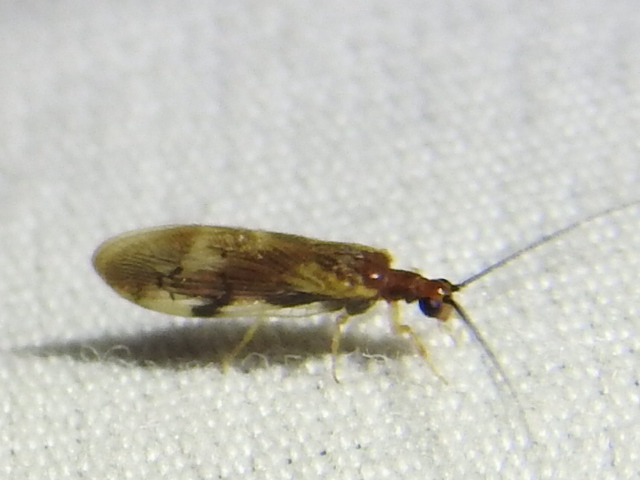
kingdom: Animalia
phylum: Arthropoda
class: Insecta
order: Neuroptera
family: Sisyridae
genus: Climacia
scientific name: Climacia areolaris
